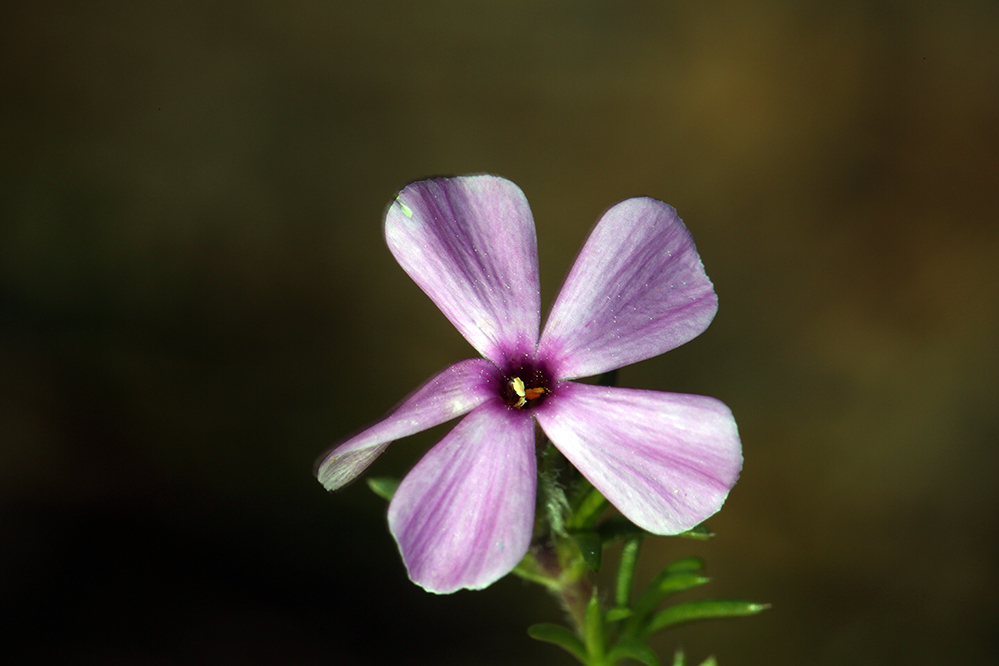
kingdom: Plantae
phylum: Tracheophyta
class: Magnoliopsida
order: Ericales
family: Polemoniaceae
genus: Phlox
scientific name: Phlox diffusa
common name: Mat phlox
